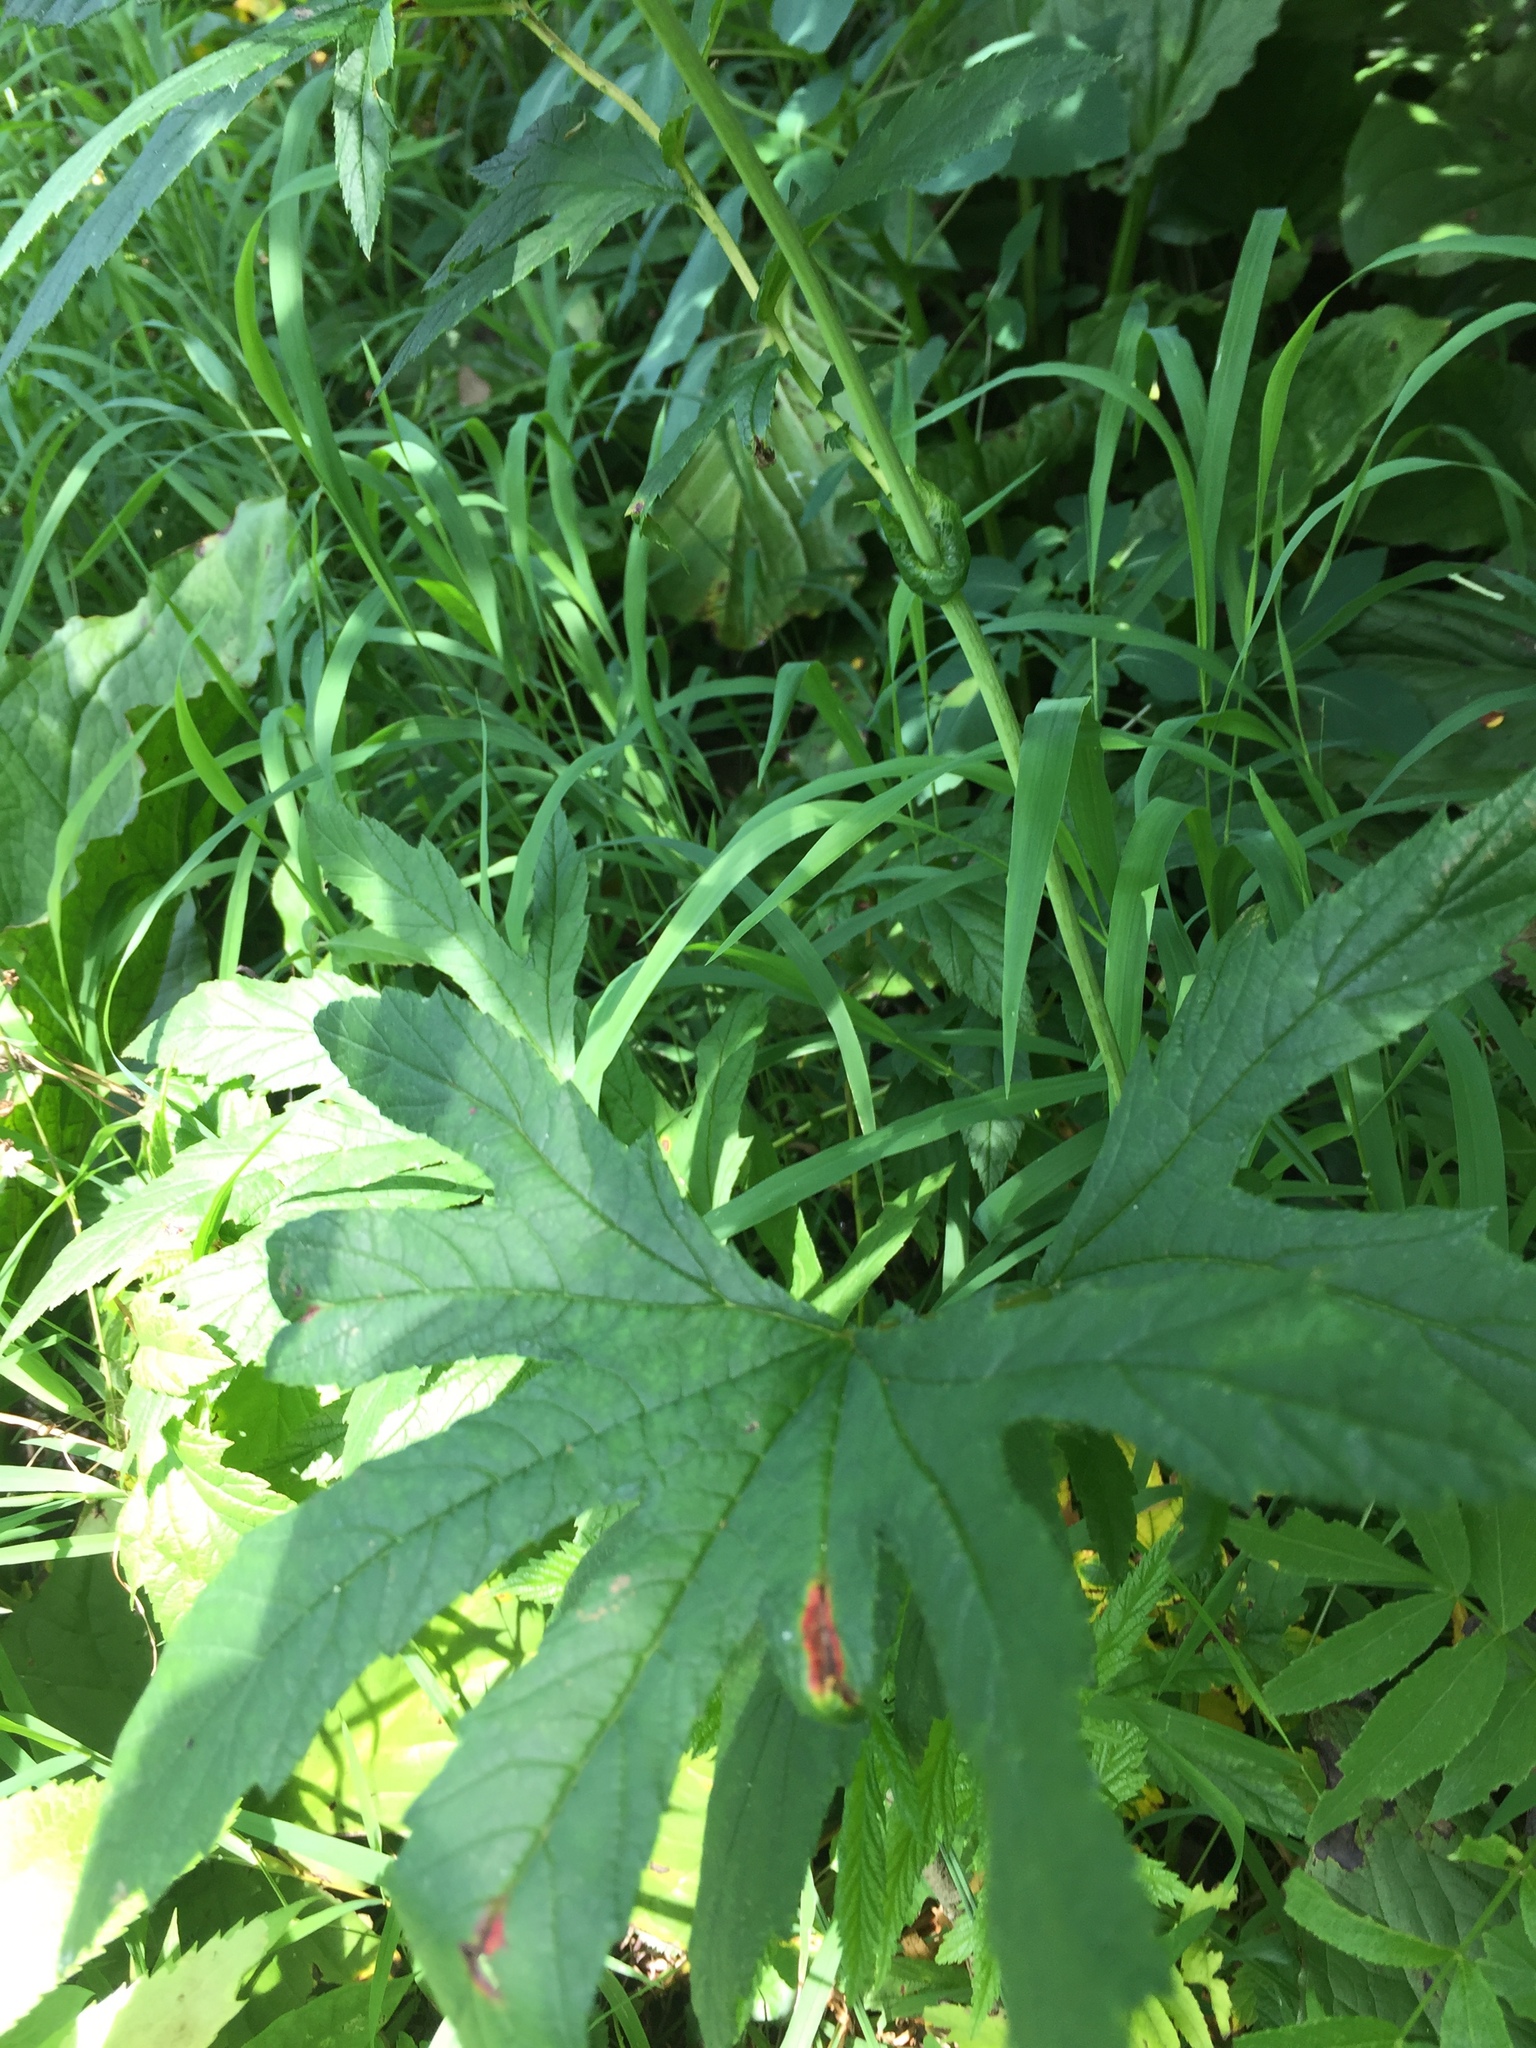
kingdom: Plantae
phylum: Tracheophyta
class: Magnoliopsida
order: Rosales
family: Rosaceae
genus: Filipendula
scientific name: Filipendula rubra
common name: Queen-of-the-prairie
